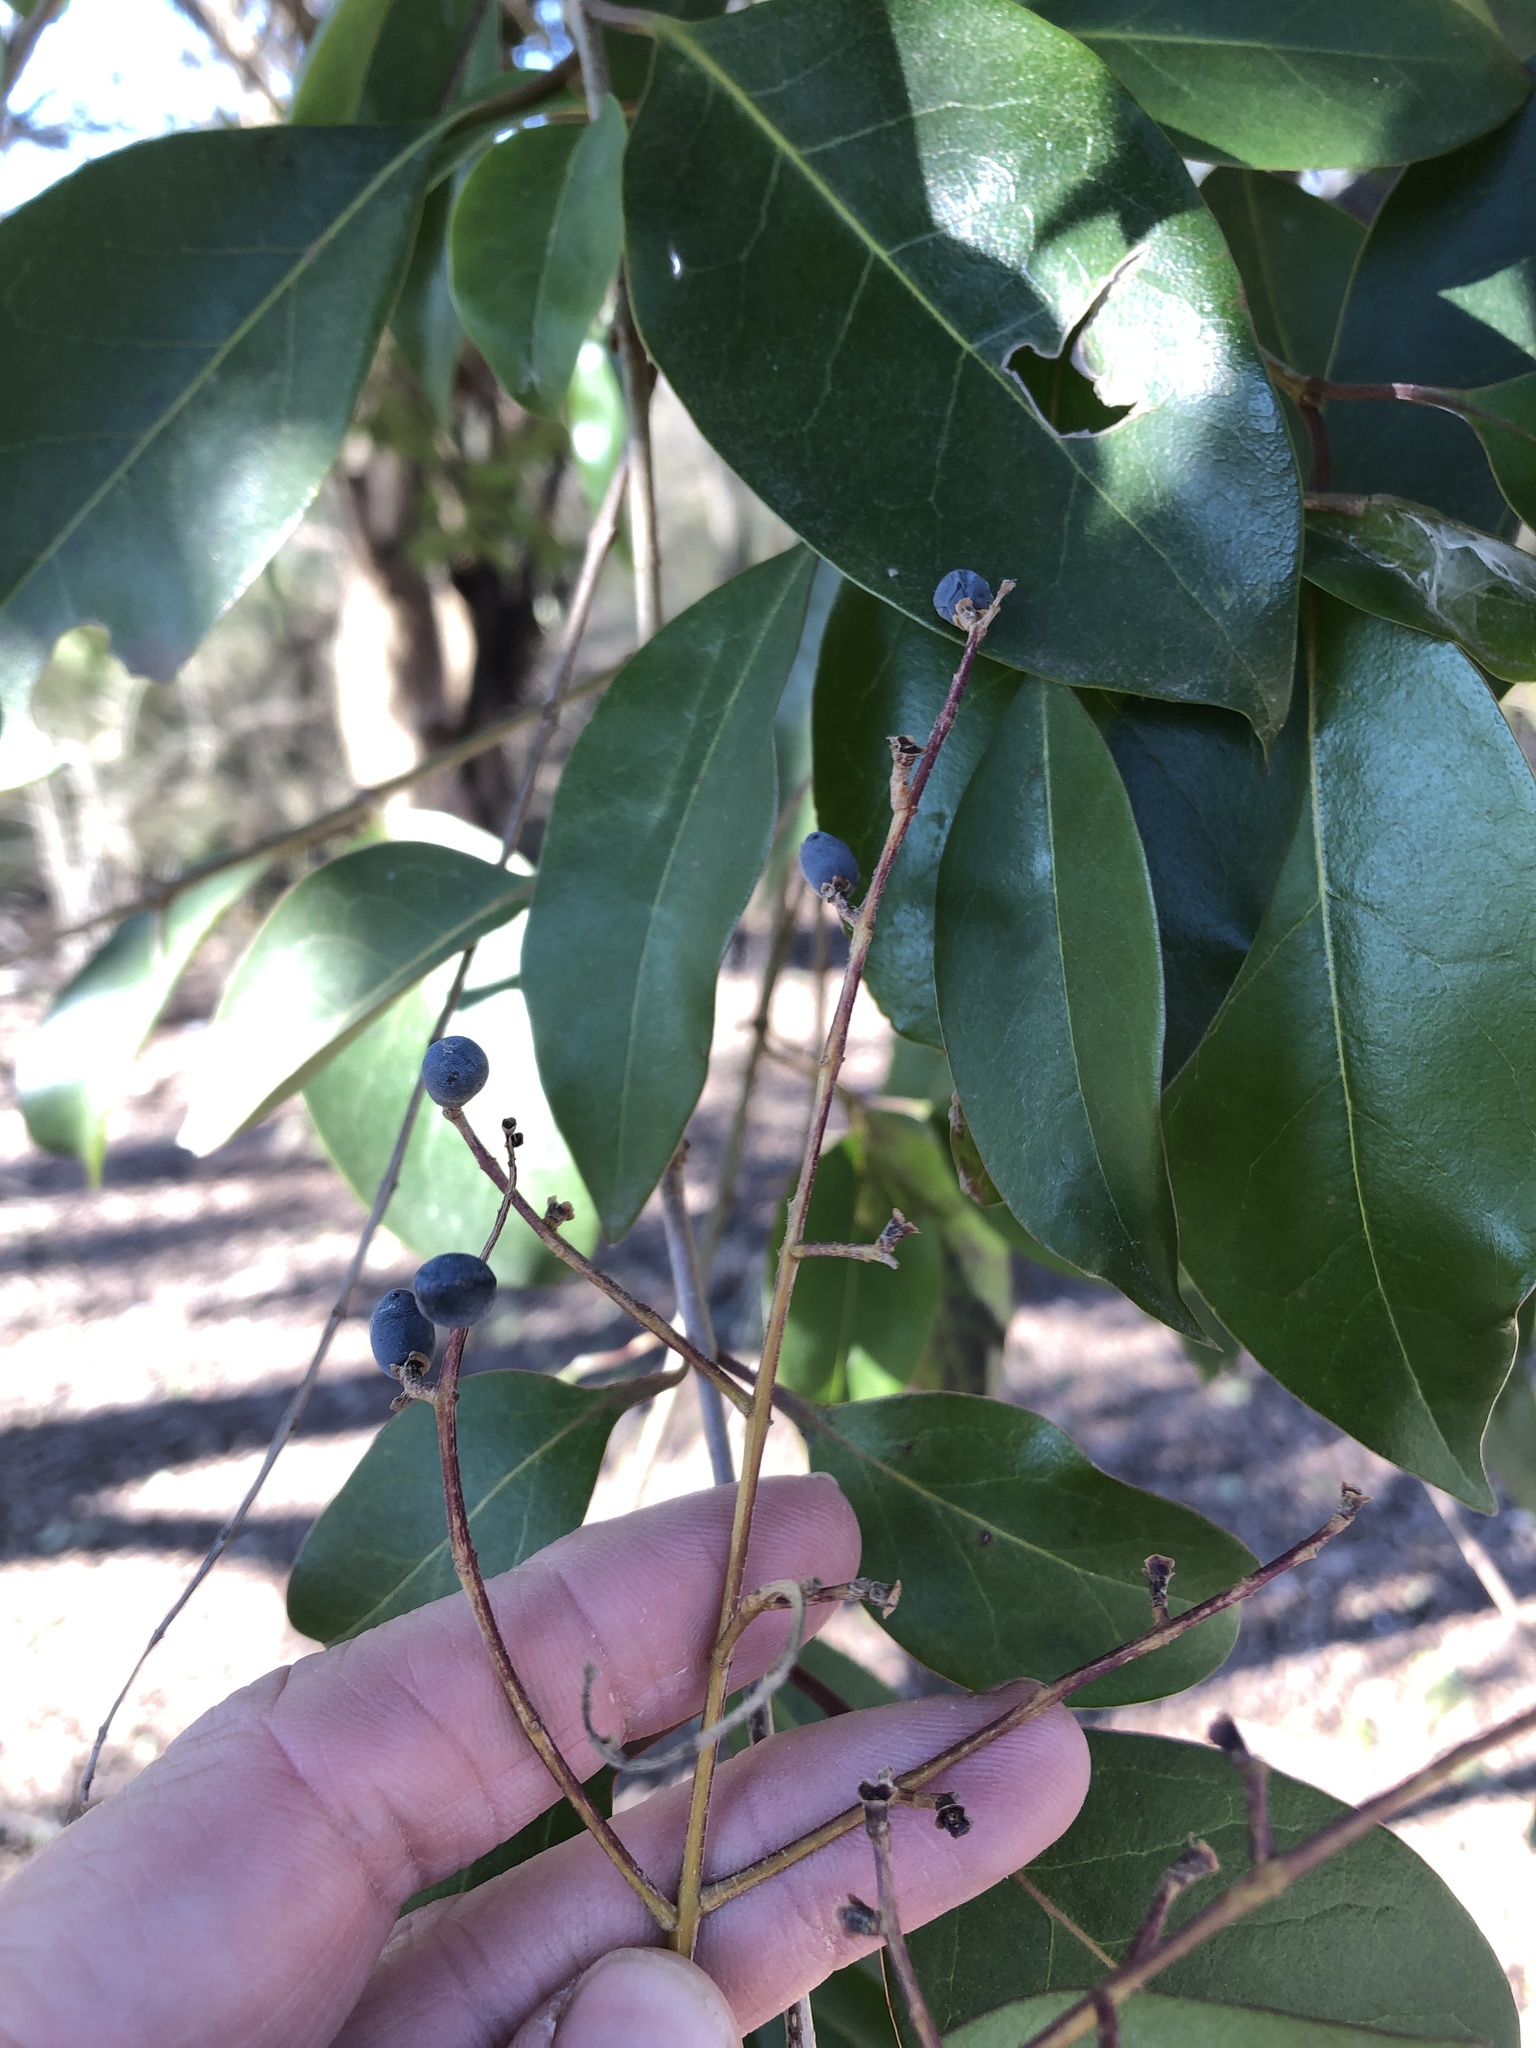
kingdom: Plantae
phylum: Tracheophyta
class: Magnoliopsida
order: Lamiales
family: Oleaceae
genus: Ligustrum
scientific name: Ligustrum lucidum
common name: Glossy privet
